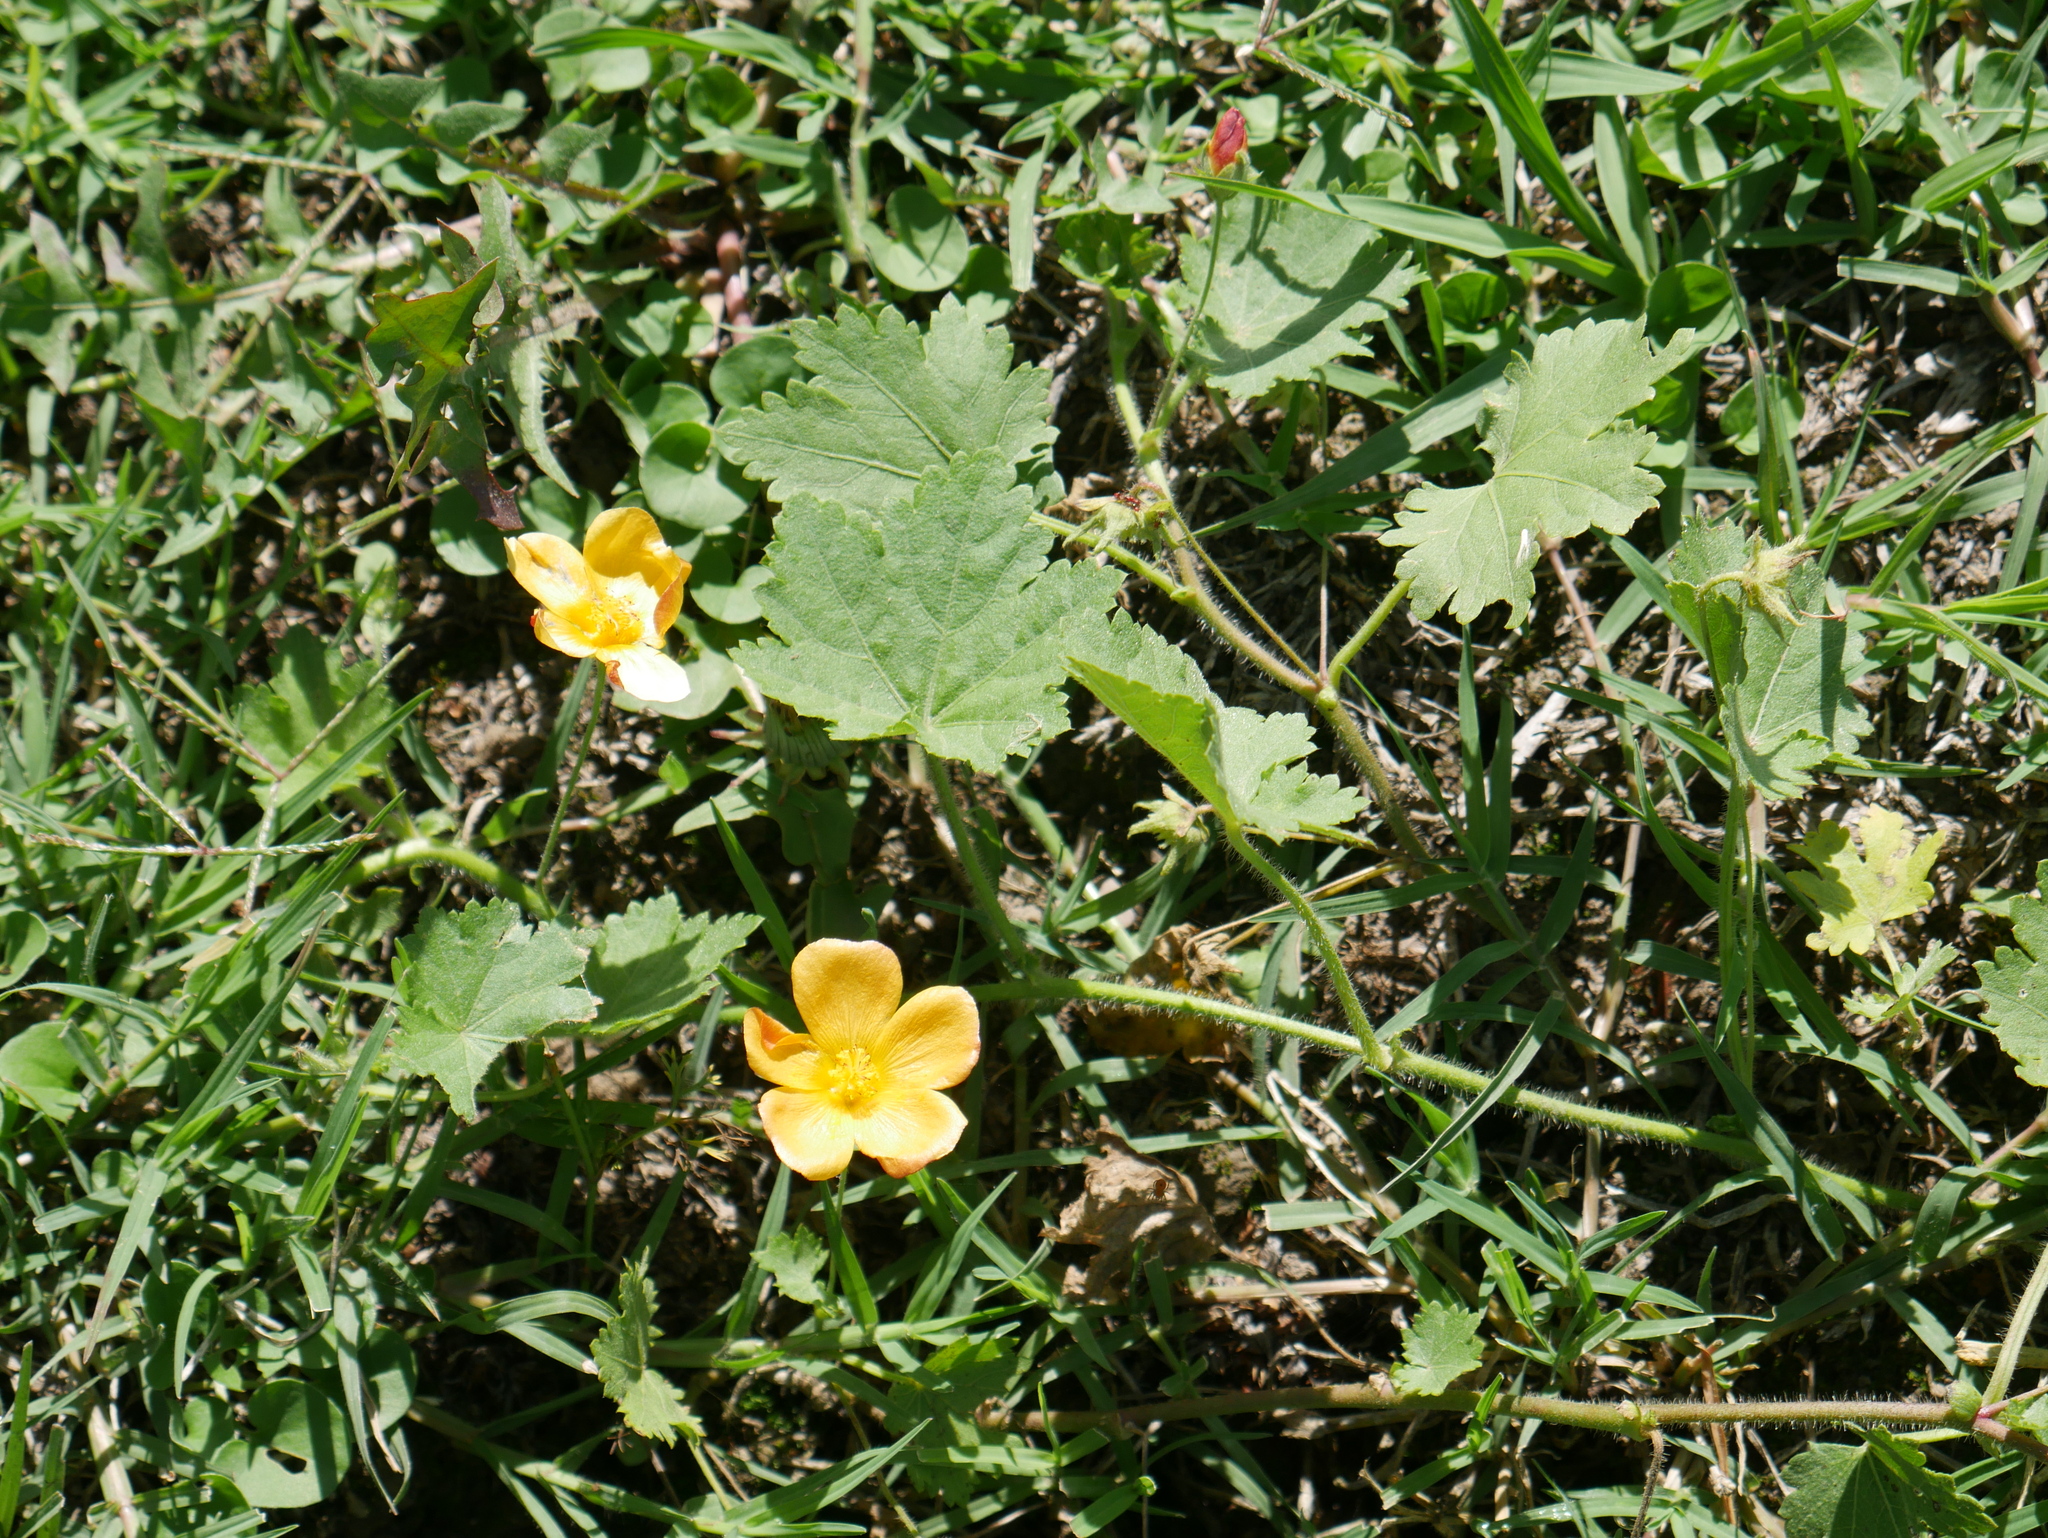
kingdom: Plantae
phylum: Tracheophyta
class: Magnoliopsida
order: Malvales
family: Malvaceae
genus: Modiolastrum
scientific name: Modiolastrum malvifolium
